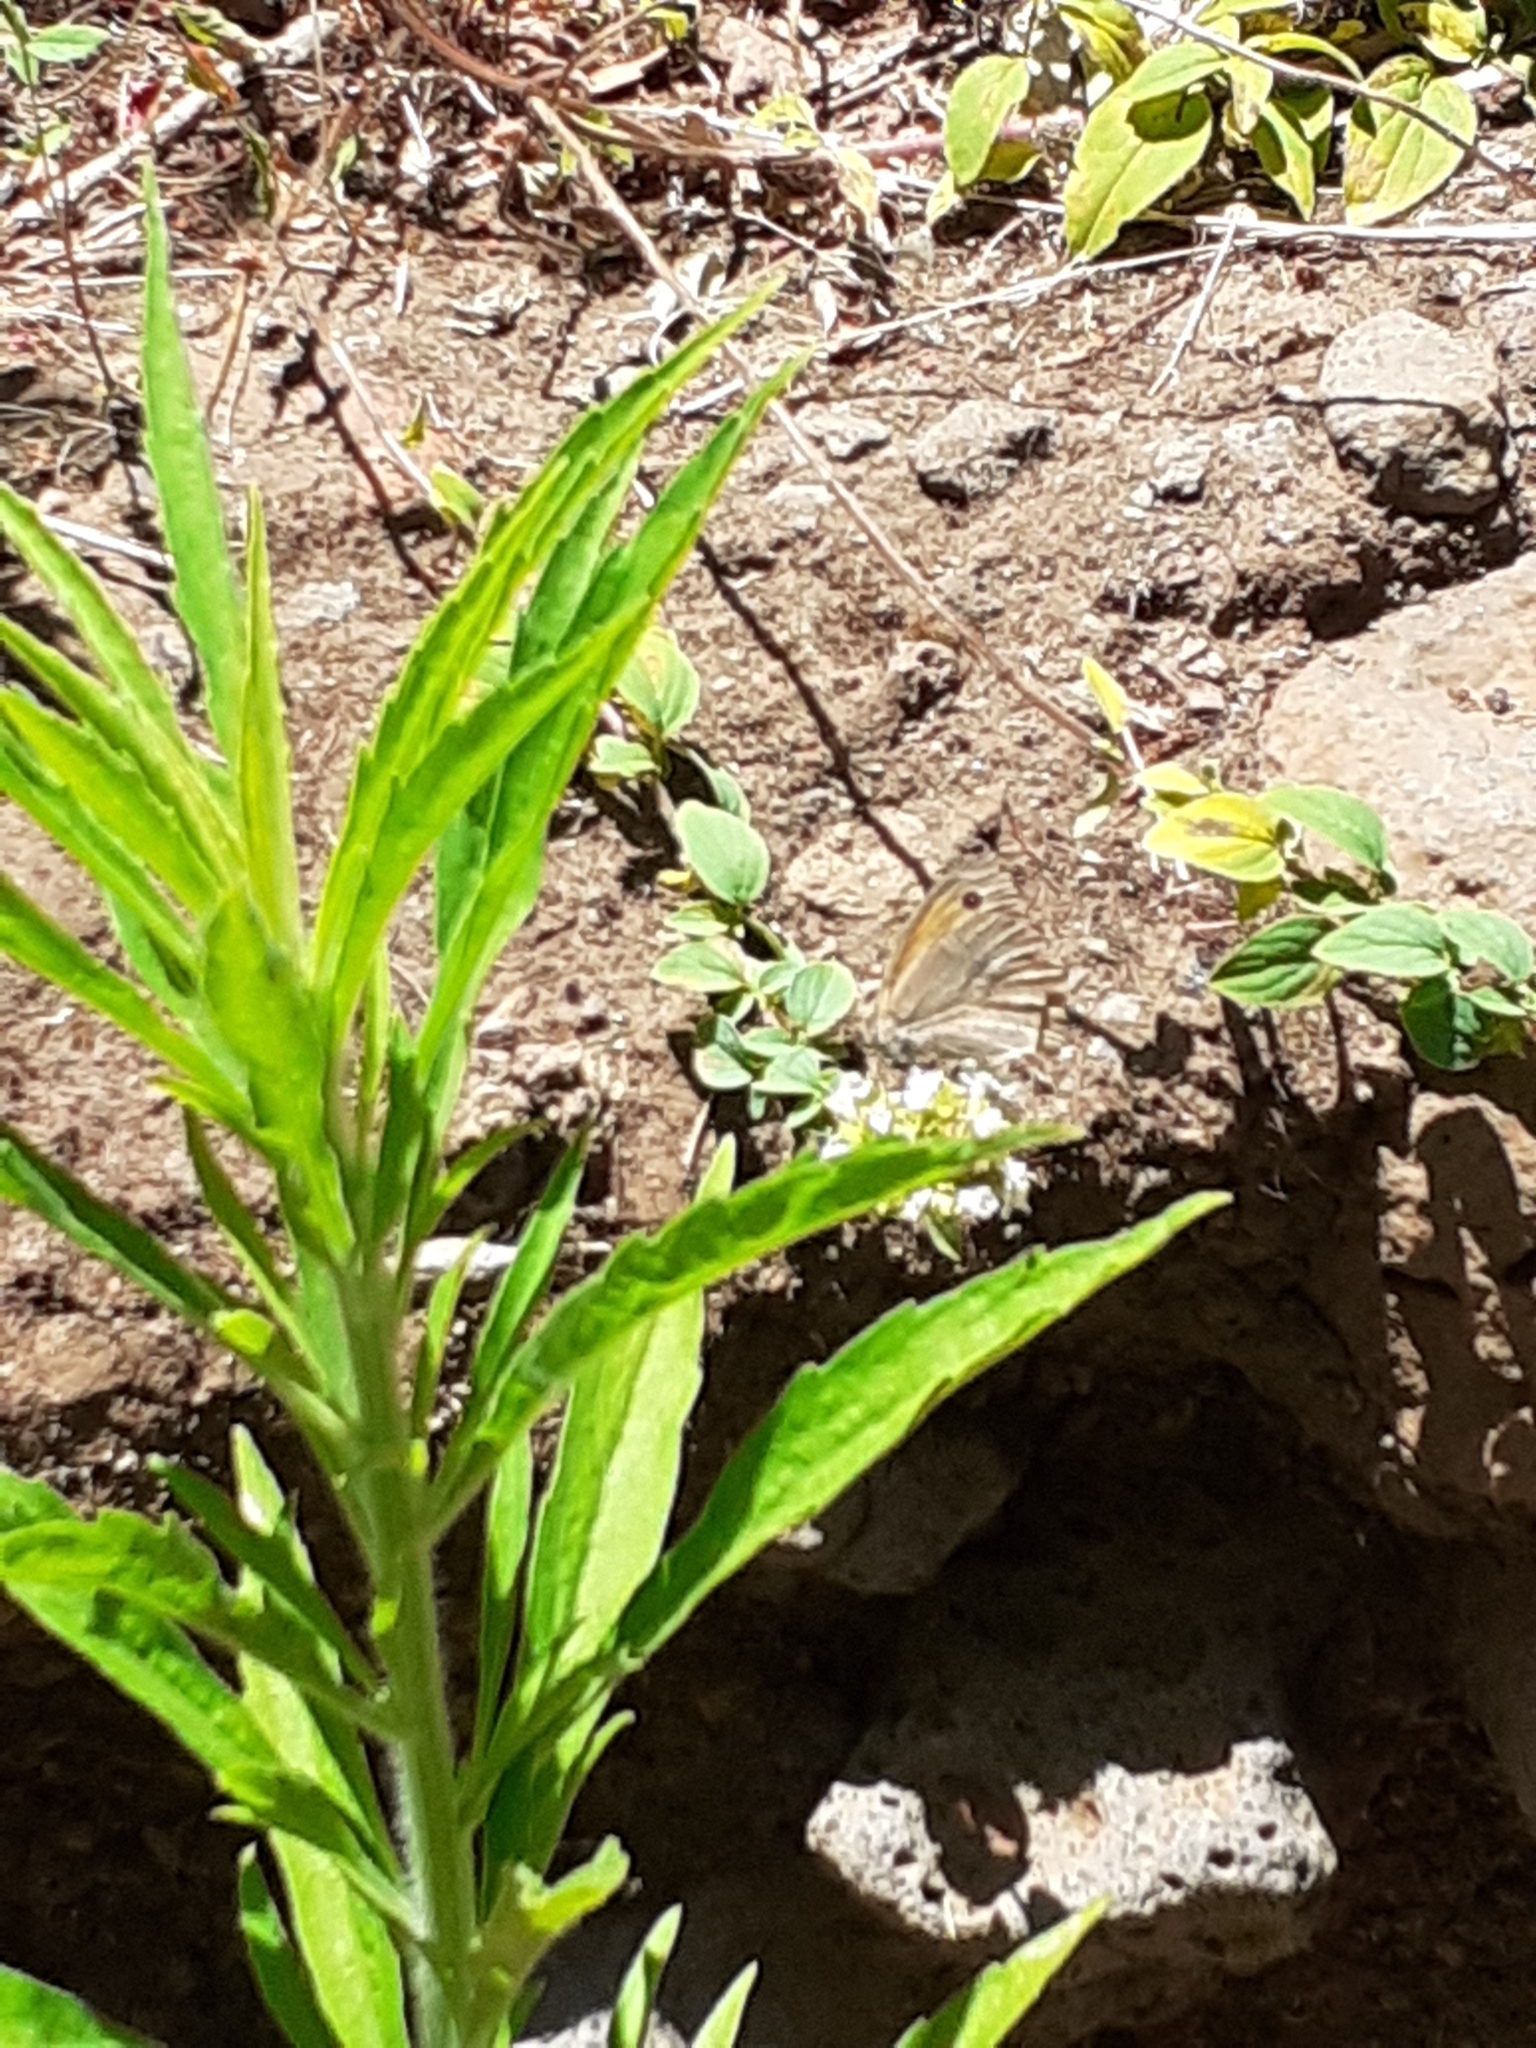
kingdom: Animalia
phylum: Arthropoda
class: Insecta
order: Lepidoptera
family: Nymphalidae
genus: Maniola
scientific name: Maniola jurtina
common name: Meadow brown
